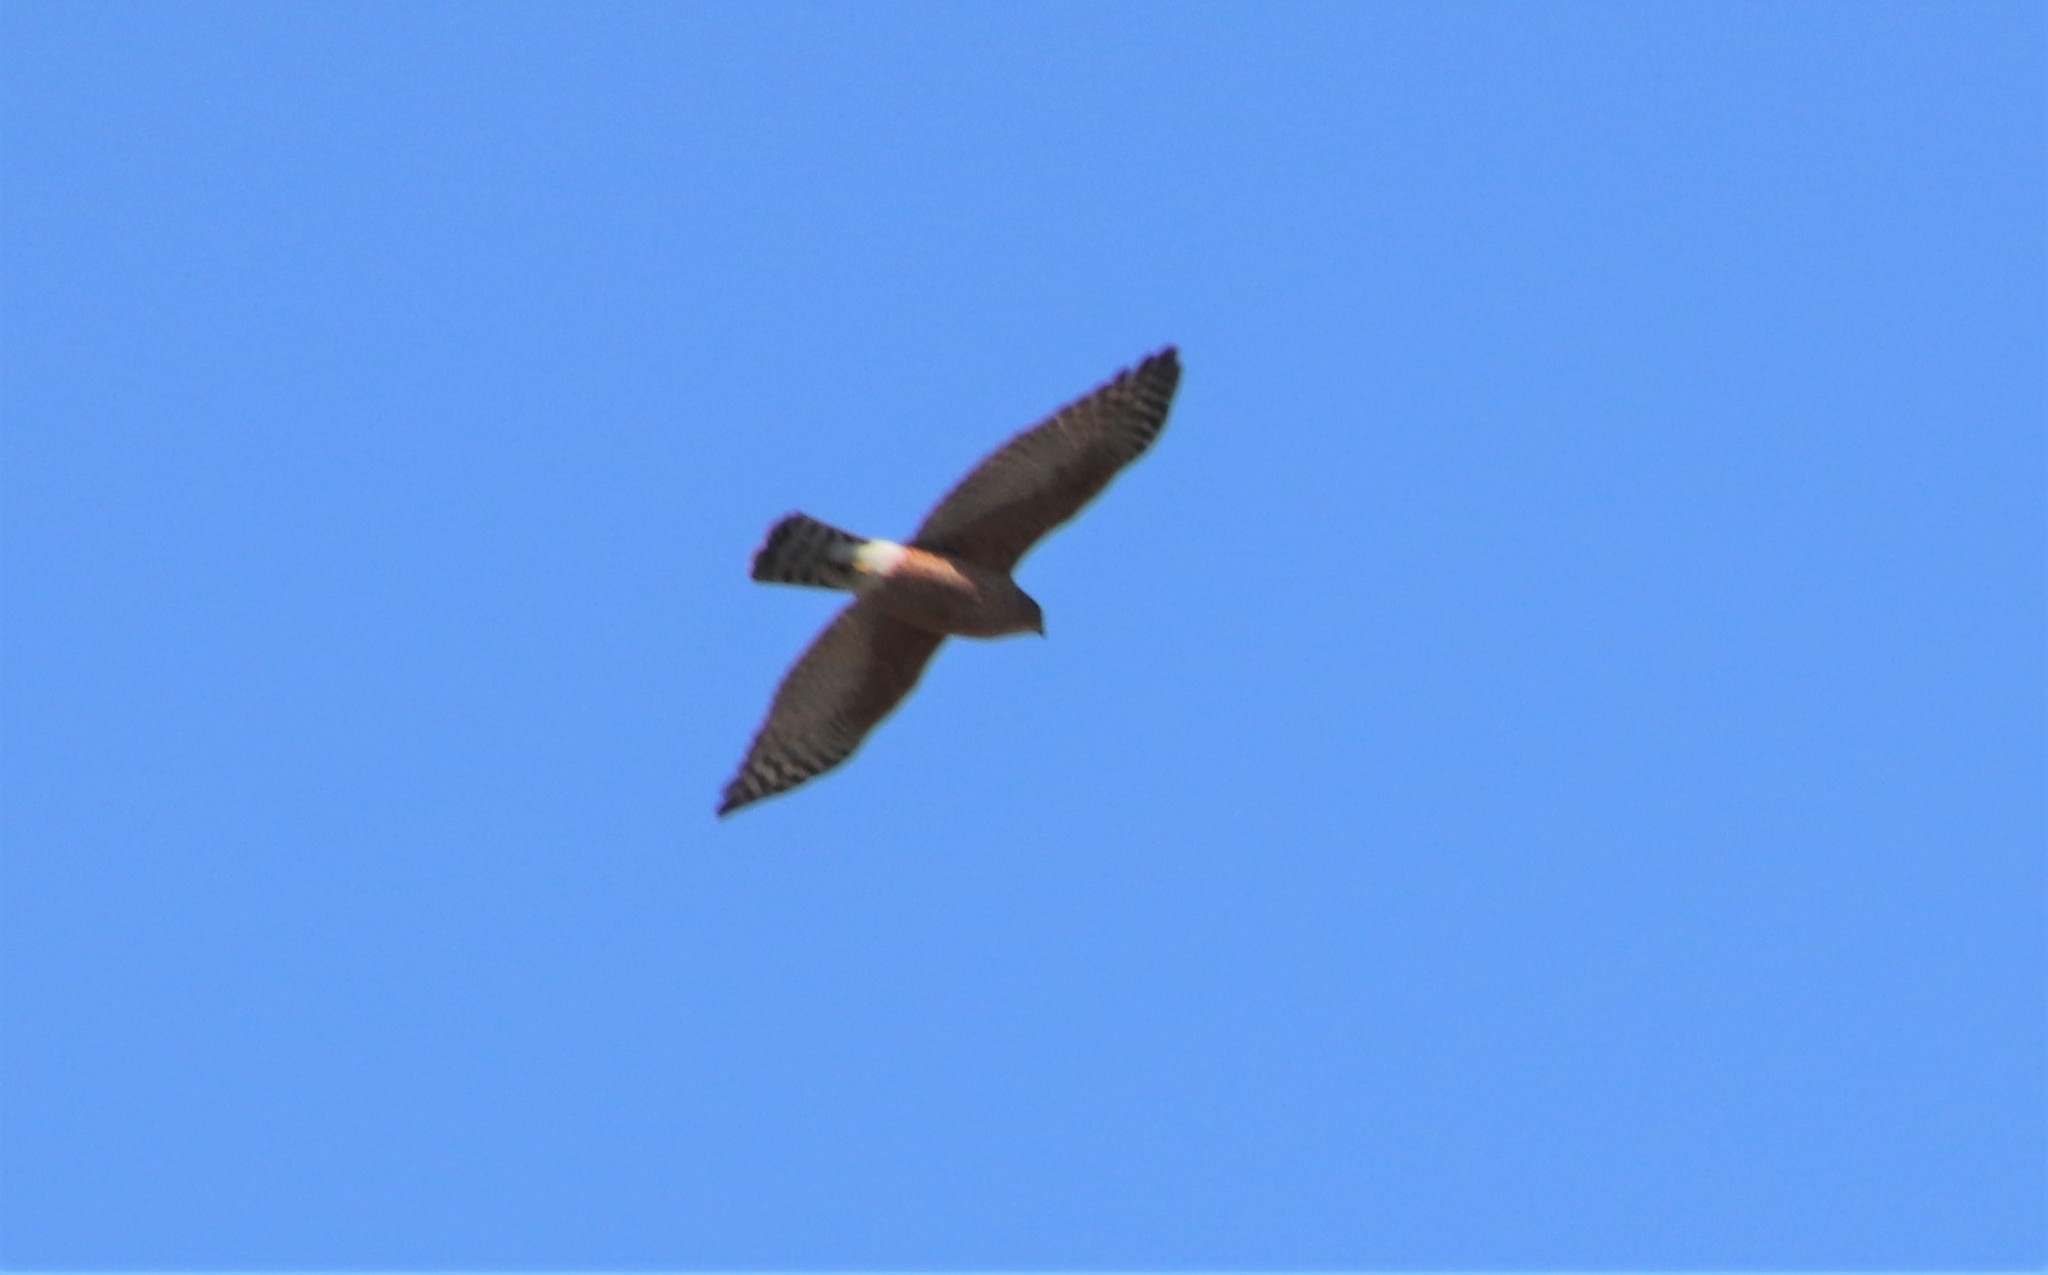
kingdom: Animalia
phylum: Chordata
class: Aves
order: Accipitriformes
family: Accipitridae
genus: Accipiter
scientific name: Accipiter cooperii
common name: Cooper's hawk
